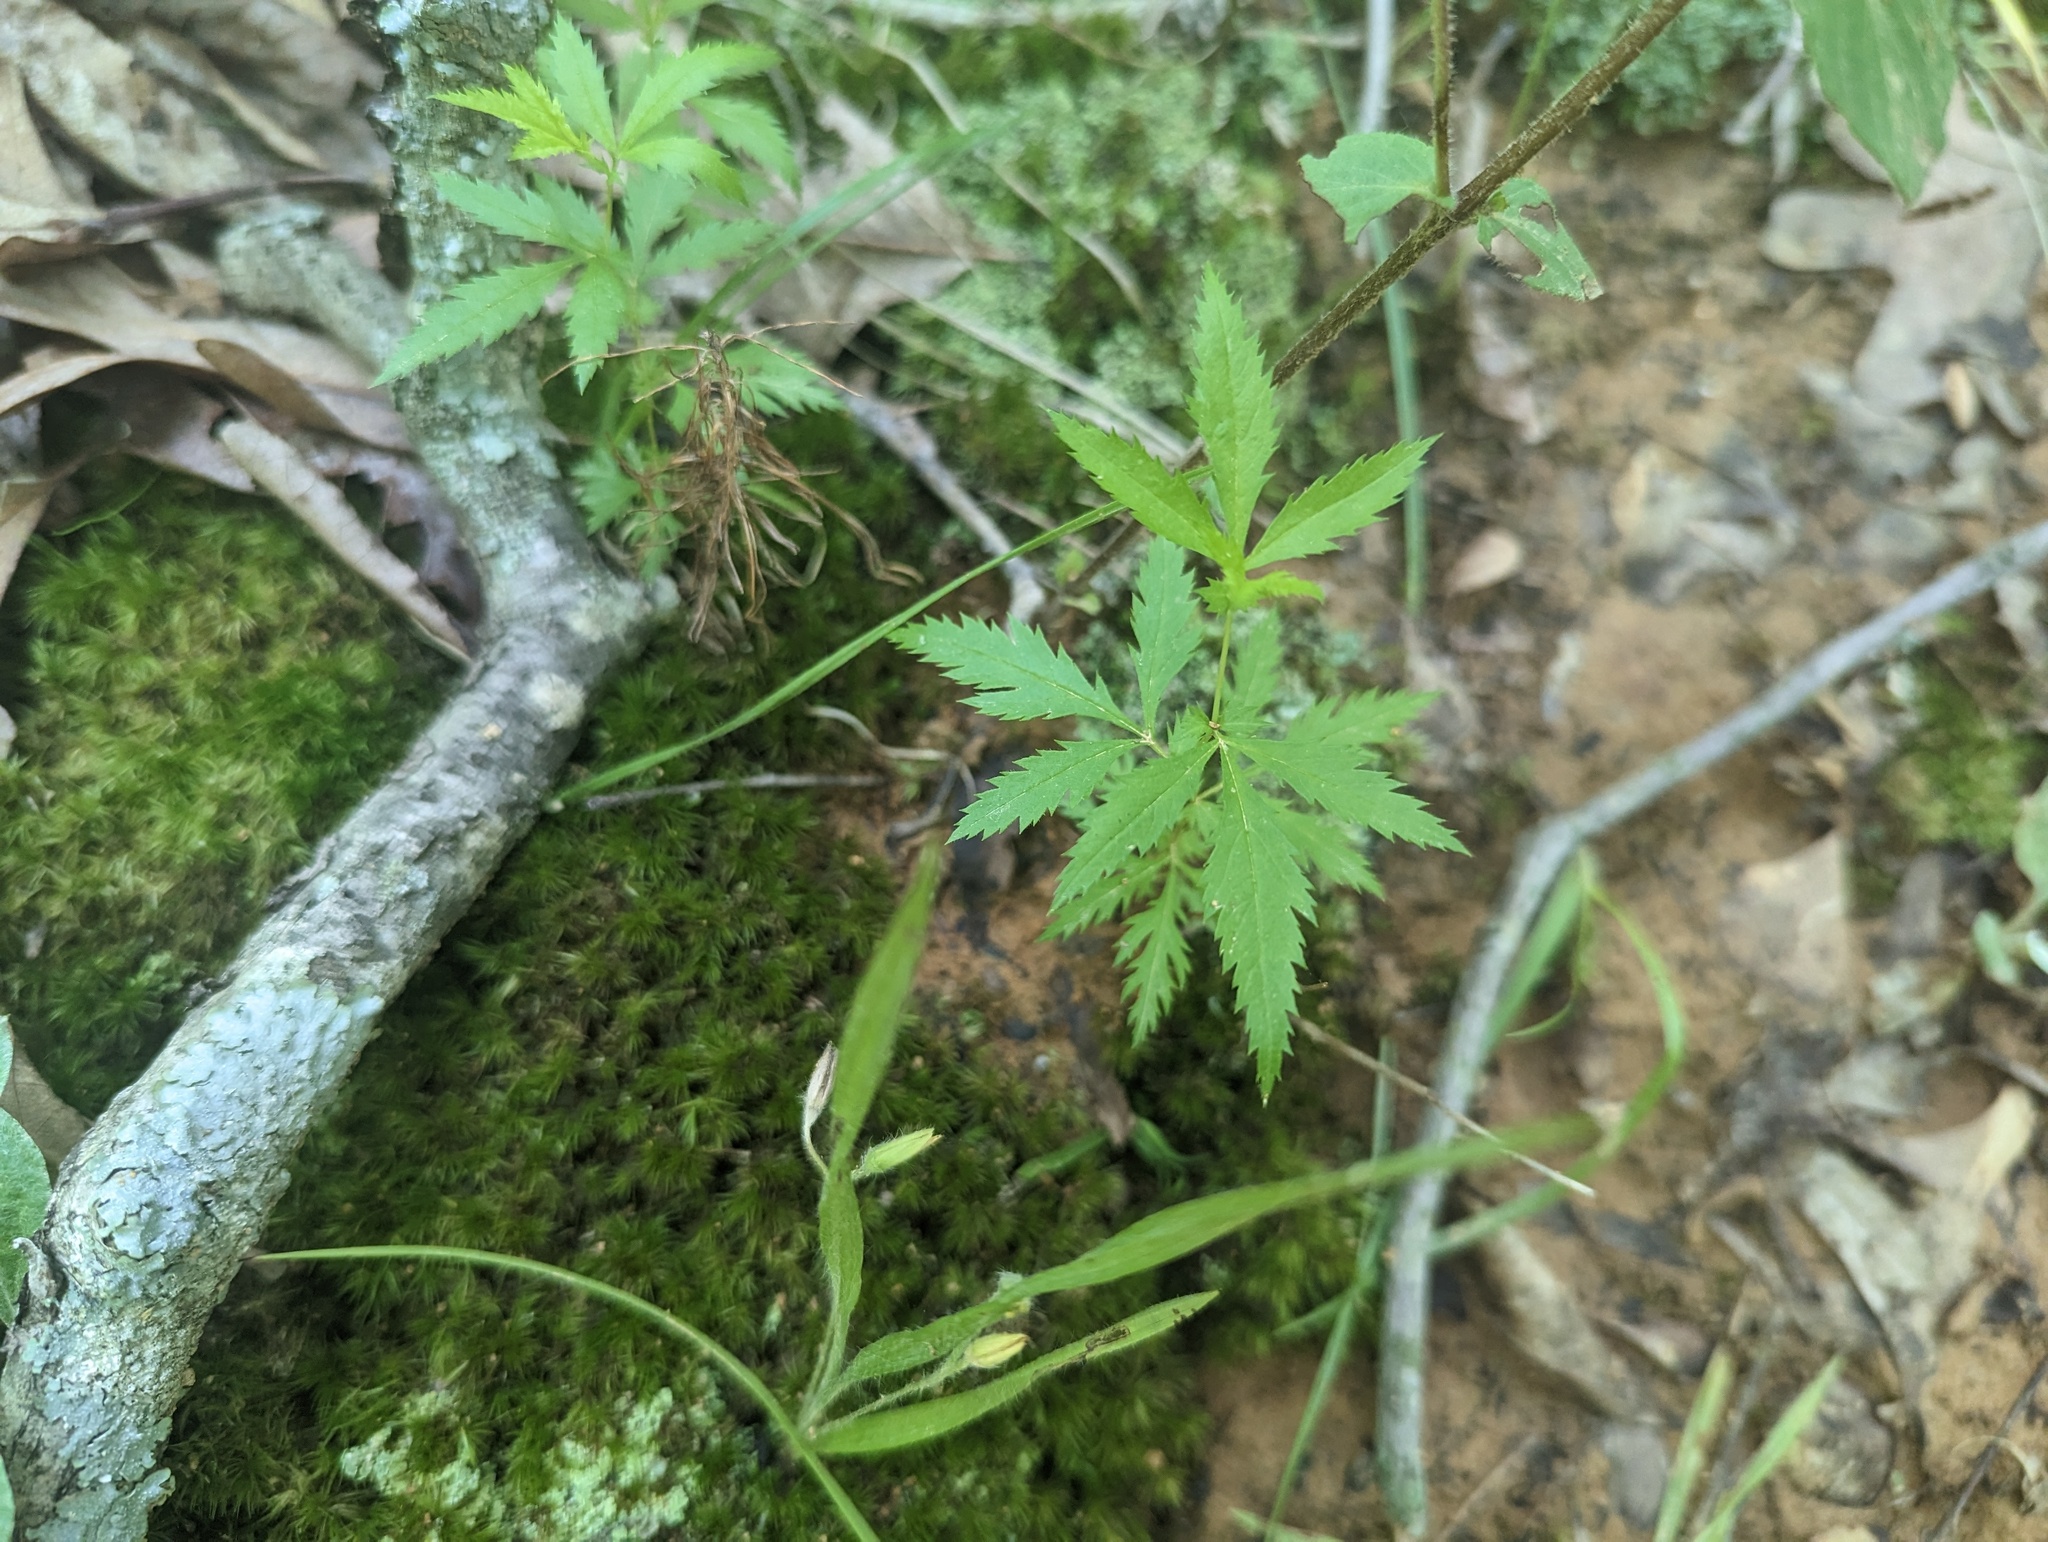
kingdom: Plantae
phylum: Tracheophyta
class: Magnoliopsida
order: Rosales
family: Rosaceae
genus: Gillenia
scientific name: Gillenia stipulata
